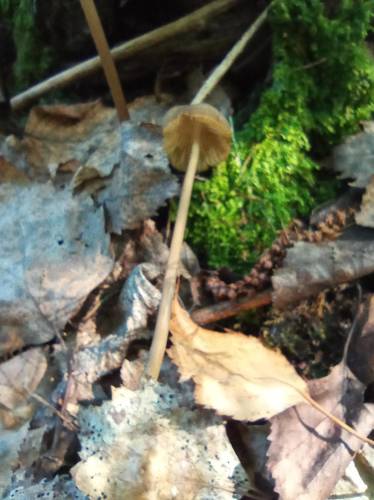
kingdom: Fungi
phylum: Basidiomycota
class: Agaricomycetes
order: Agaricales
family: Mycenaceae
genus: Mycena
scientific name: Mycena
